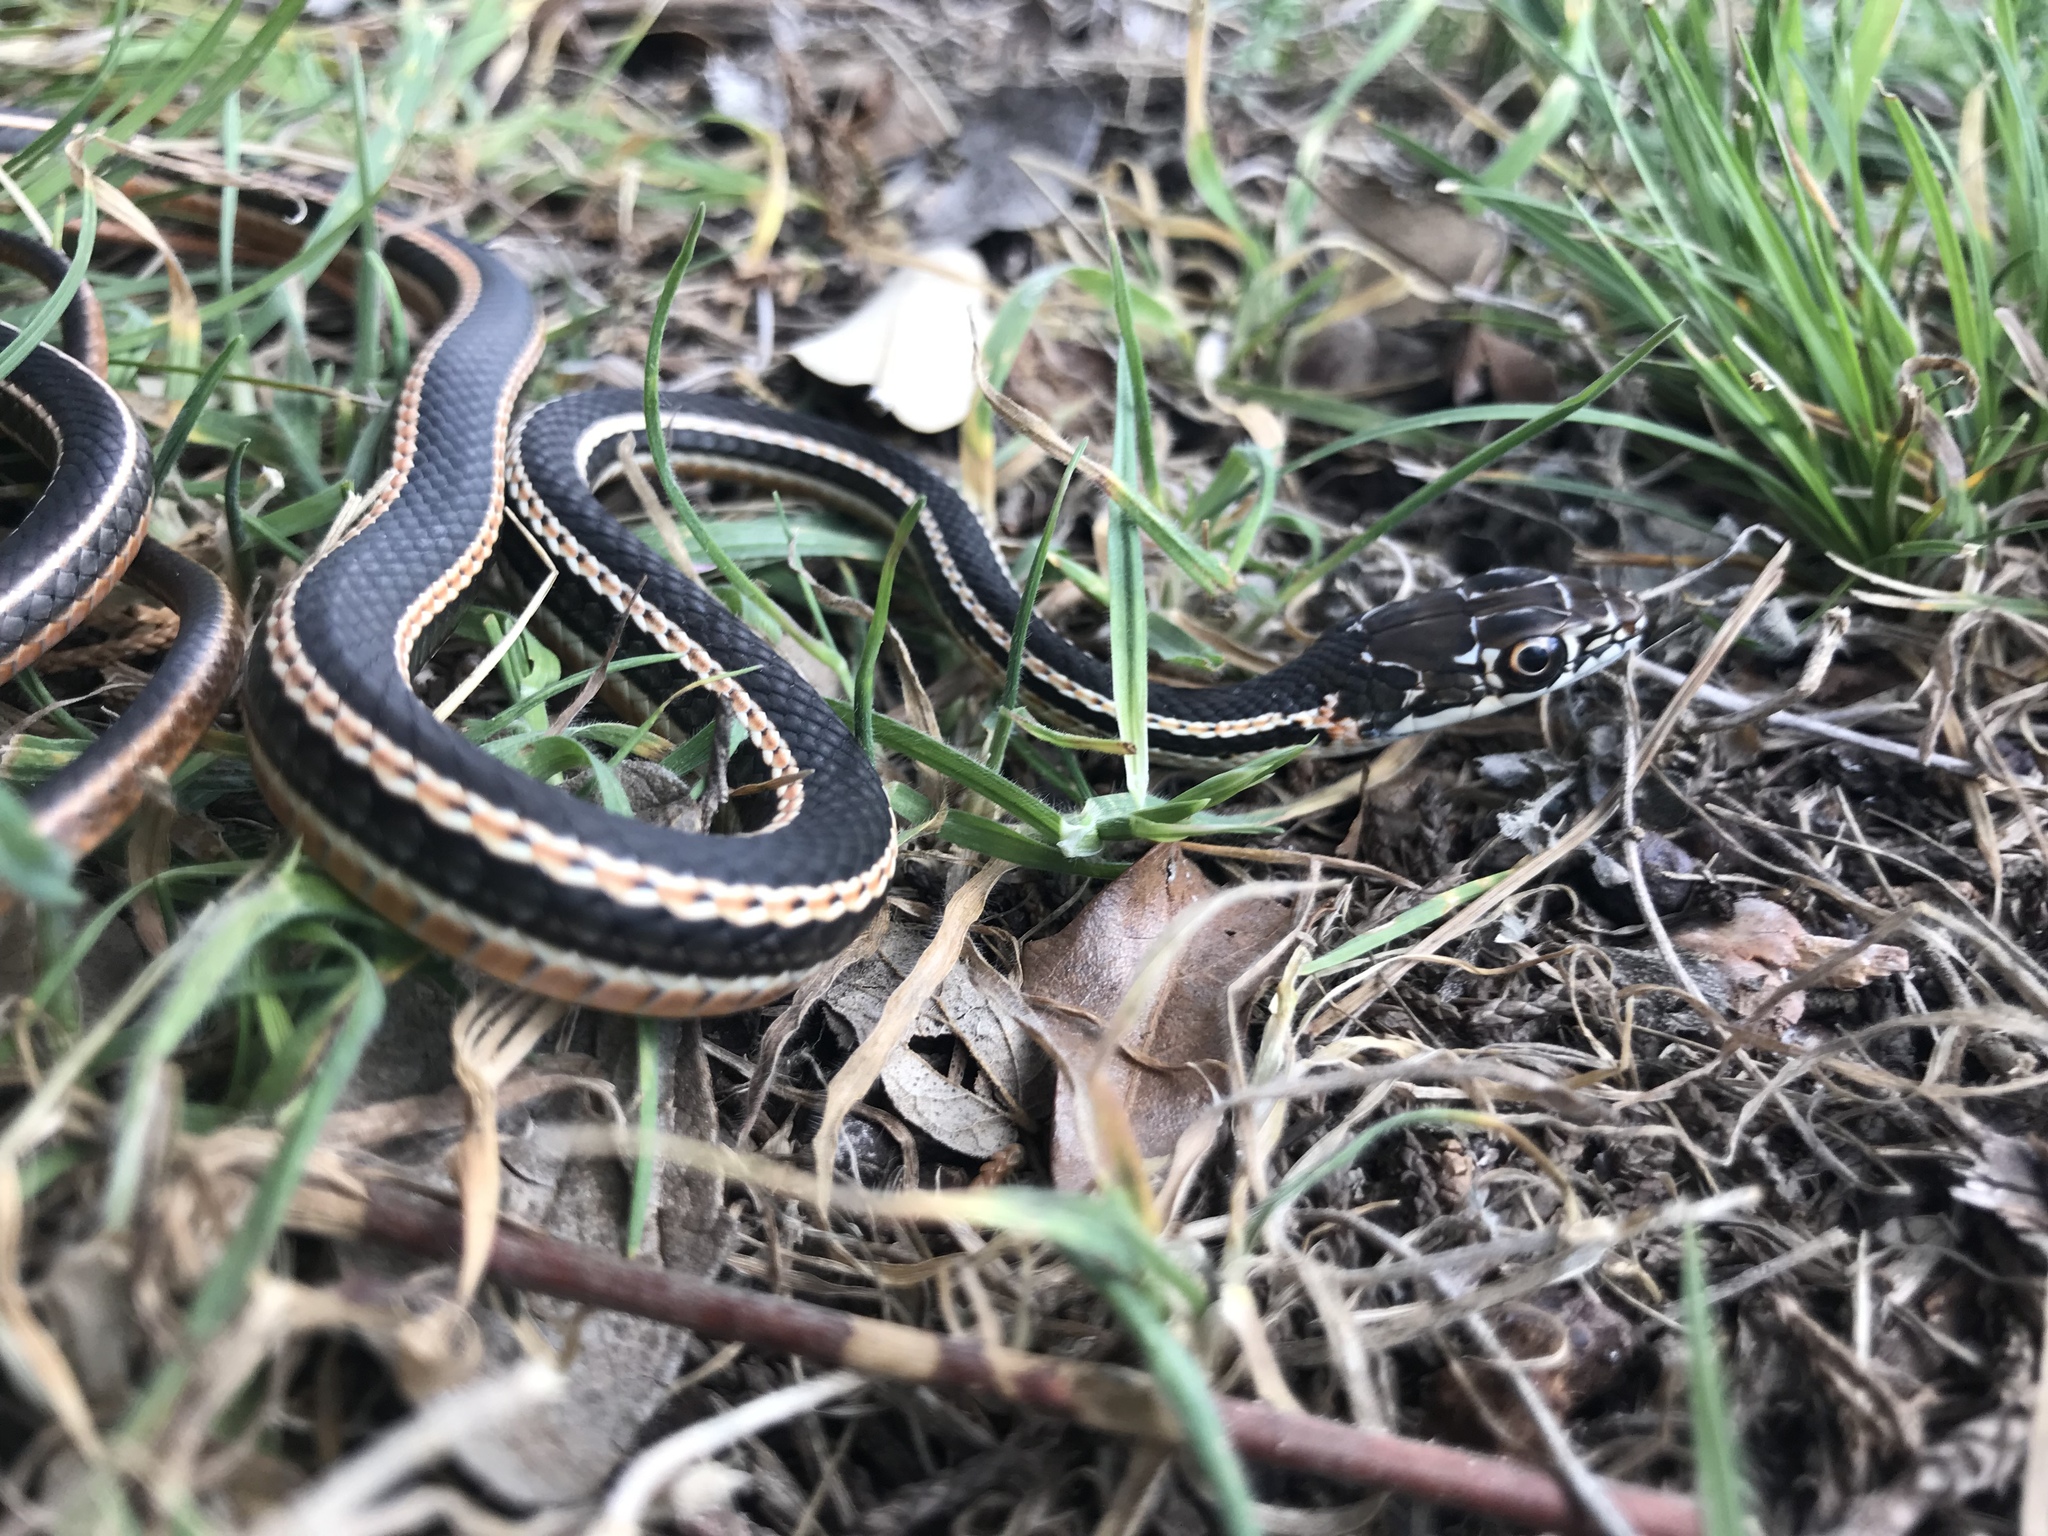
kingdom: Animalia
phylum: Chordata
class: Squamata
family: Colubridae
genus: Masticophis
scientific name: Masticophis taeniatus
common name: Striped whipsnake
